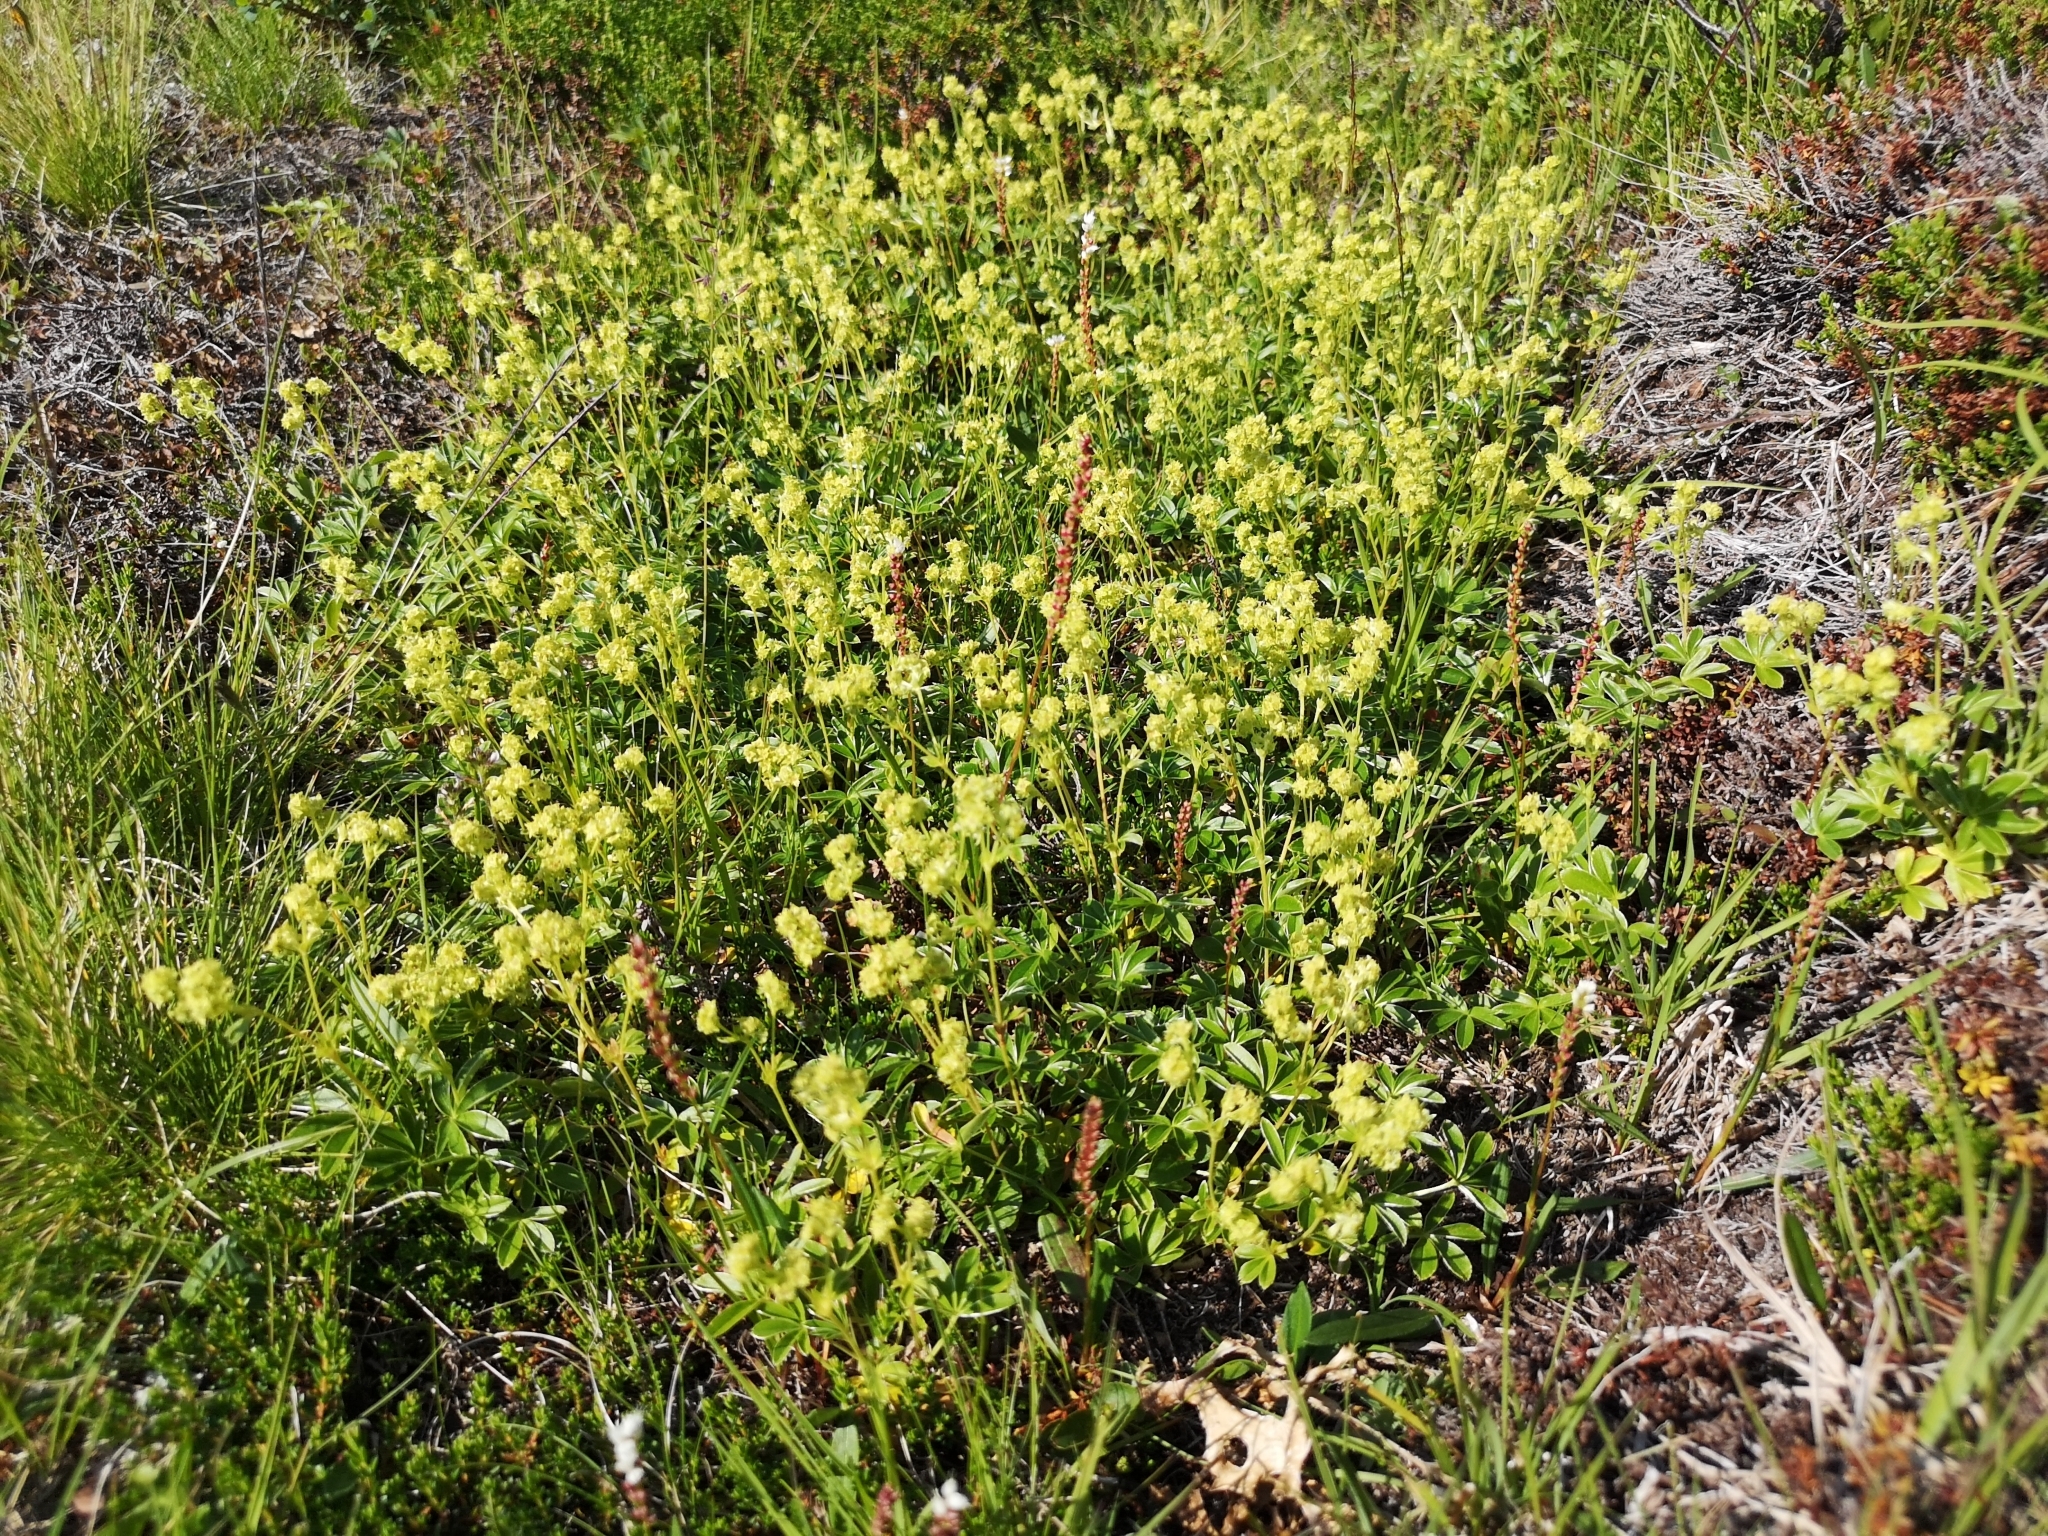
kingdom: Plantae
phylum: Tracheophyta
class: Magnoliopsida
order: Rosales
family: Rosaceae
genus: Alchemilla
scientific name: Alchemilla alpina
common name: Alpine lady's-mantle
